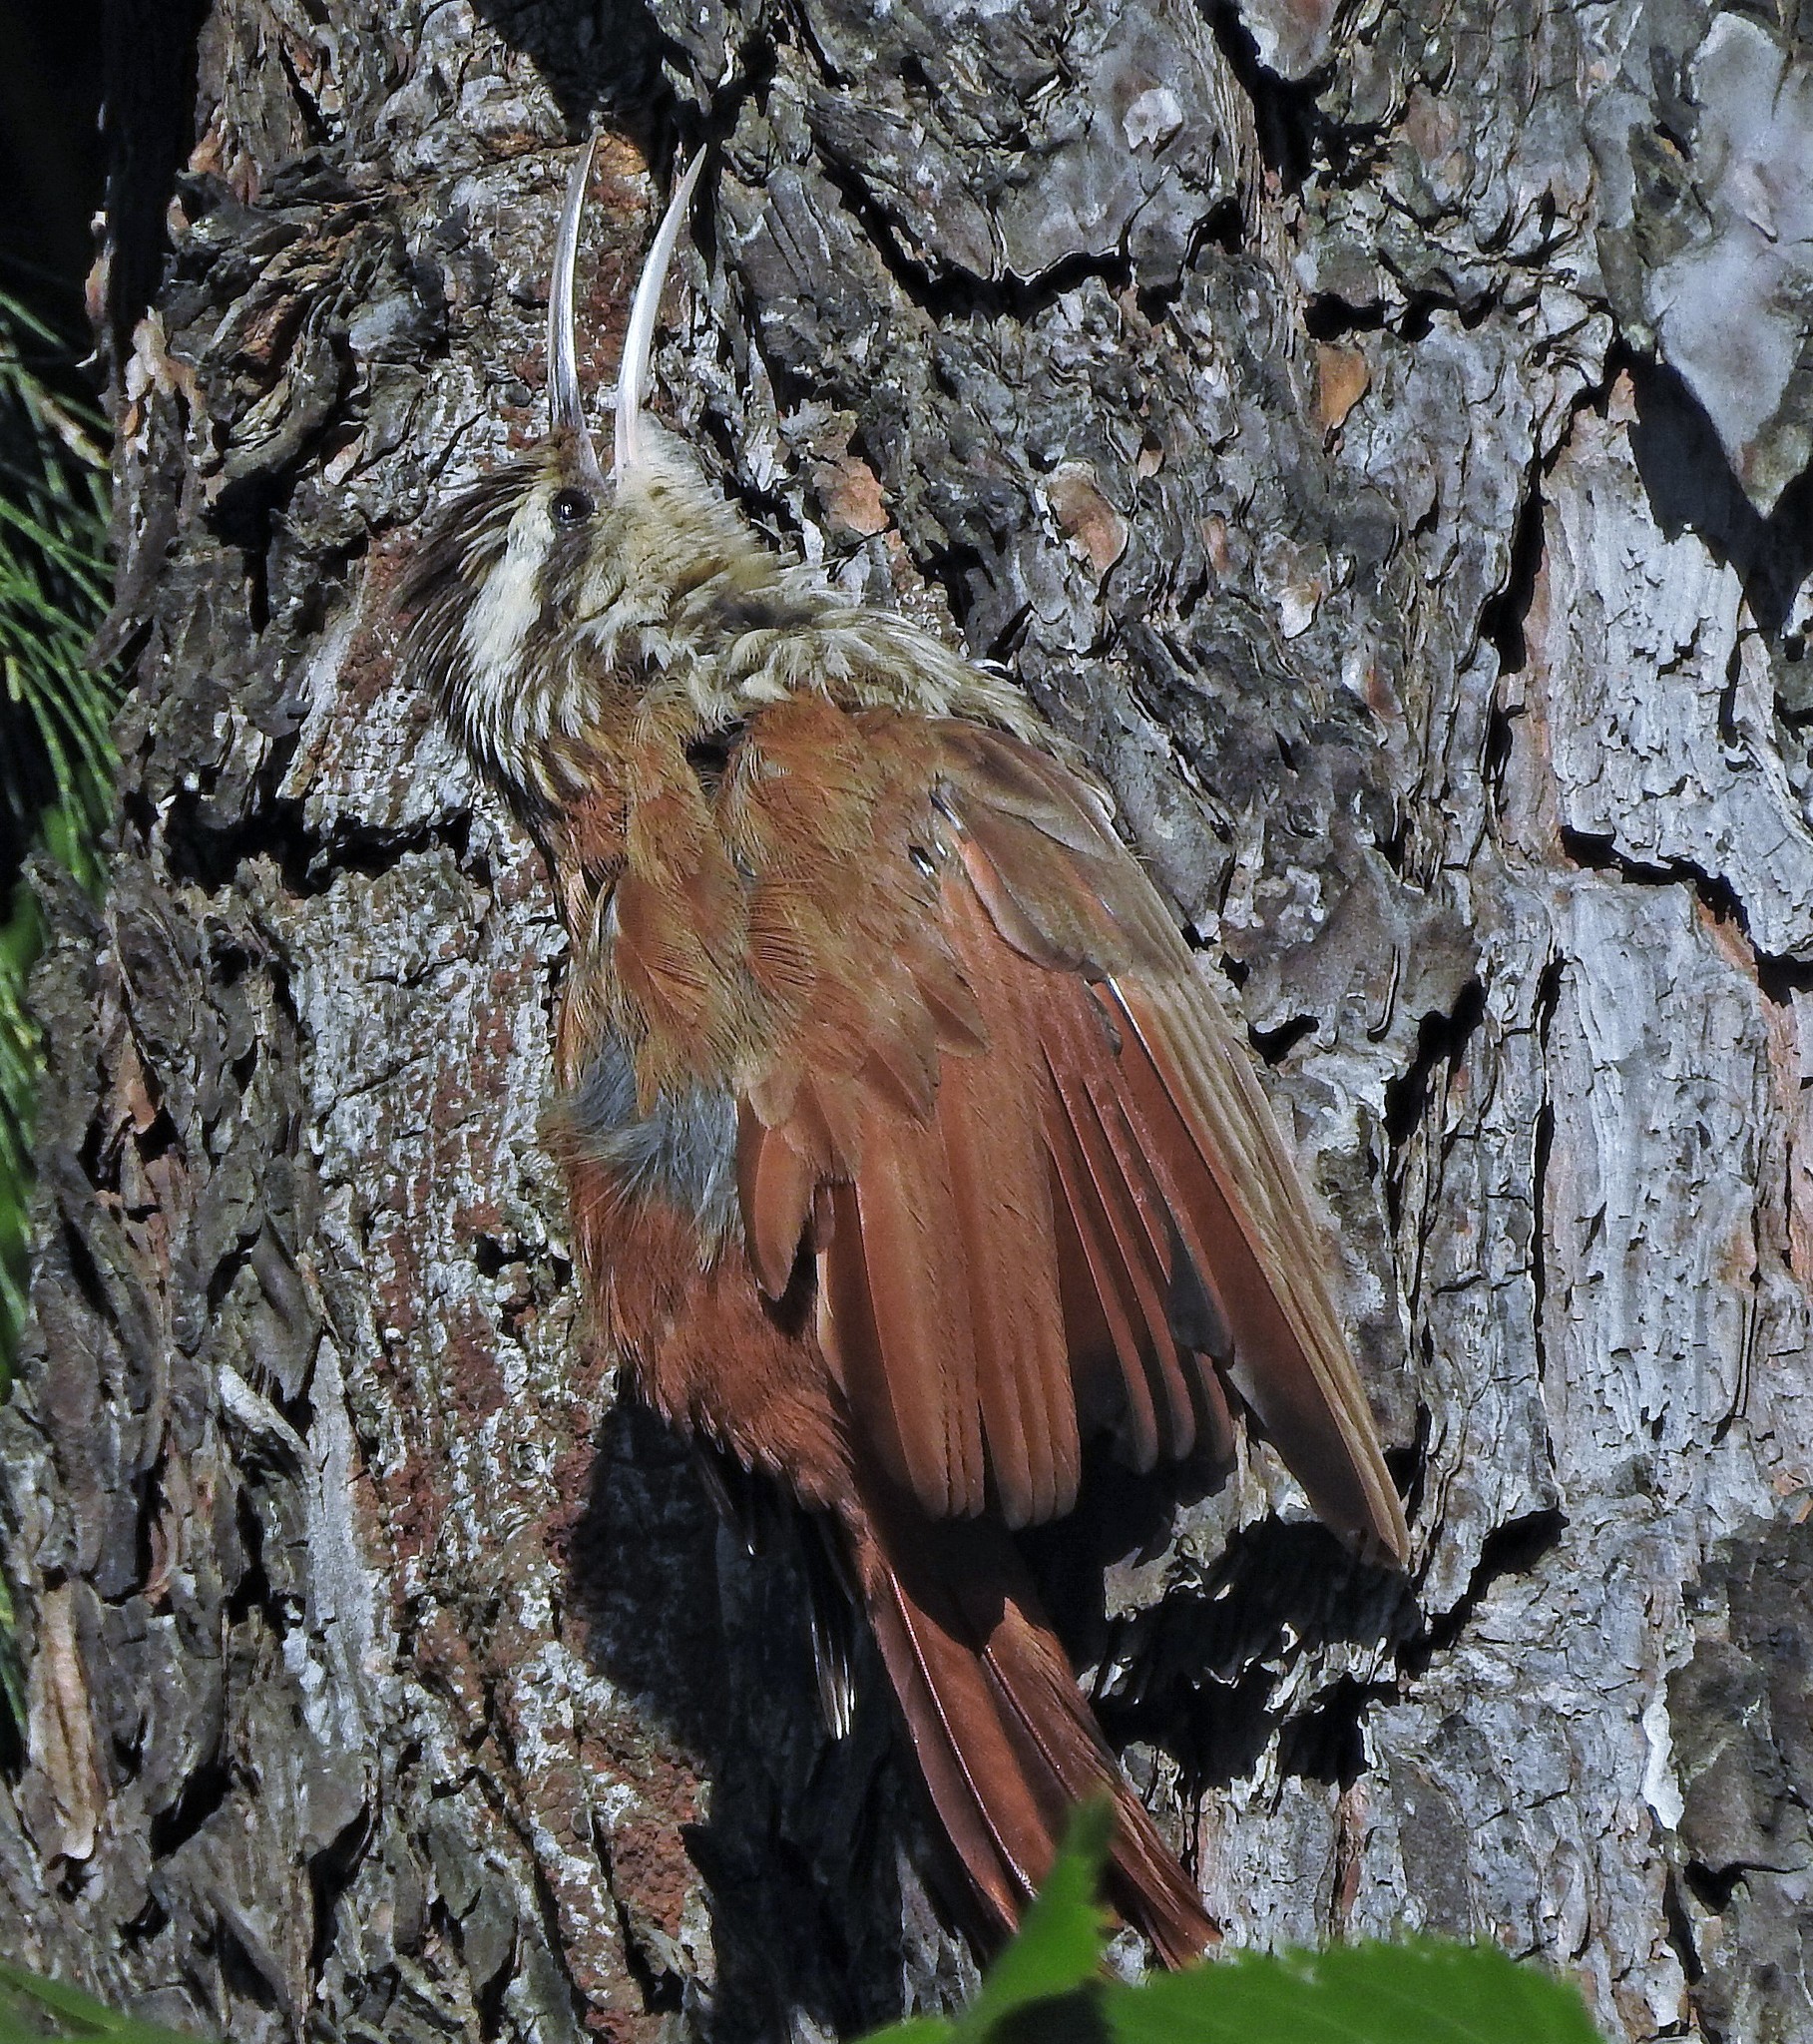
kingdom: Animalia
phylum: Chordata
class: Aves
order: Passeriformes
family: Furnariidae
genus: Lepidocolaptes
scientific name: Lepidocolaptes angustirostris
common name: Narrow-billed woodcreeper
